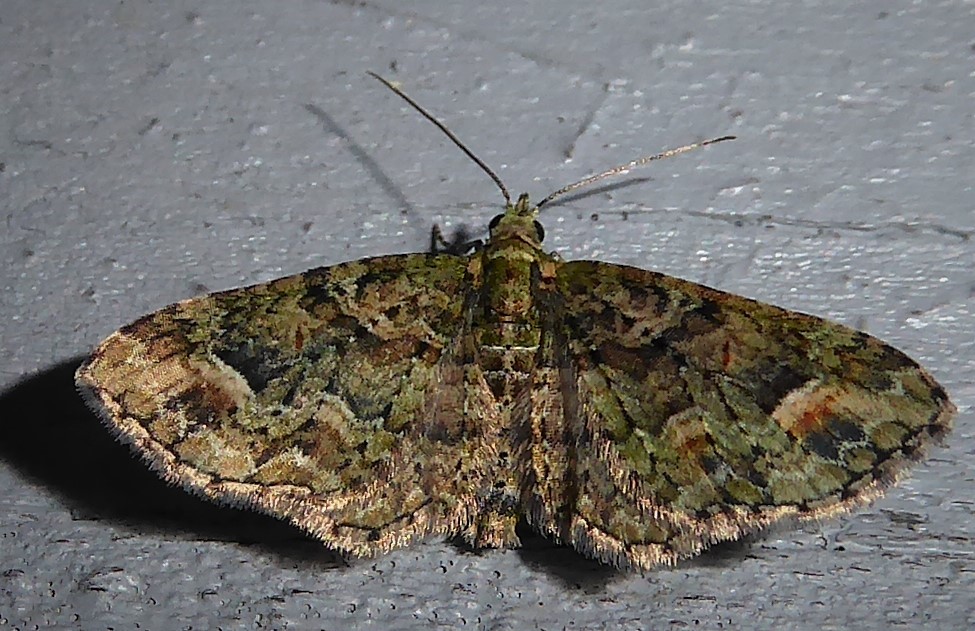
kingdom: Animalia
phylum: Arthropoda
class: Insecta
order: Lepidoptera
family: Geometridae
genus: Idaea
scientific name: Idaea mutanda
